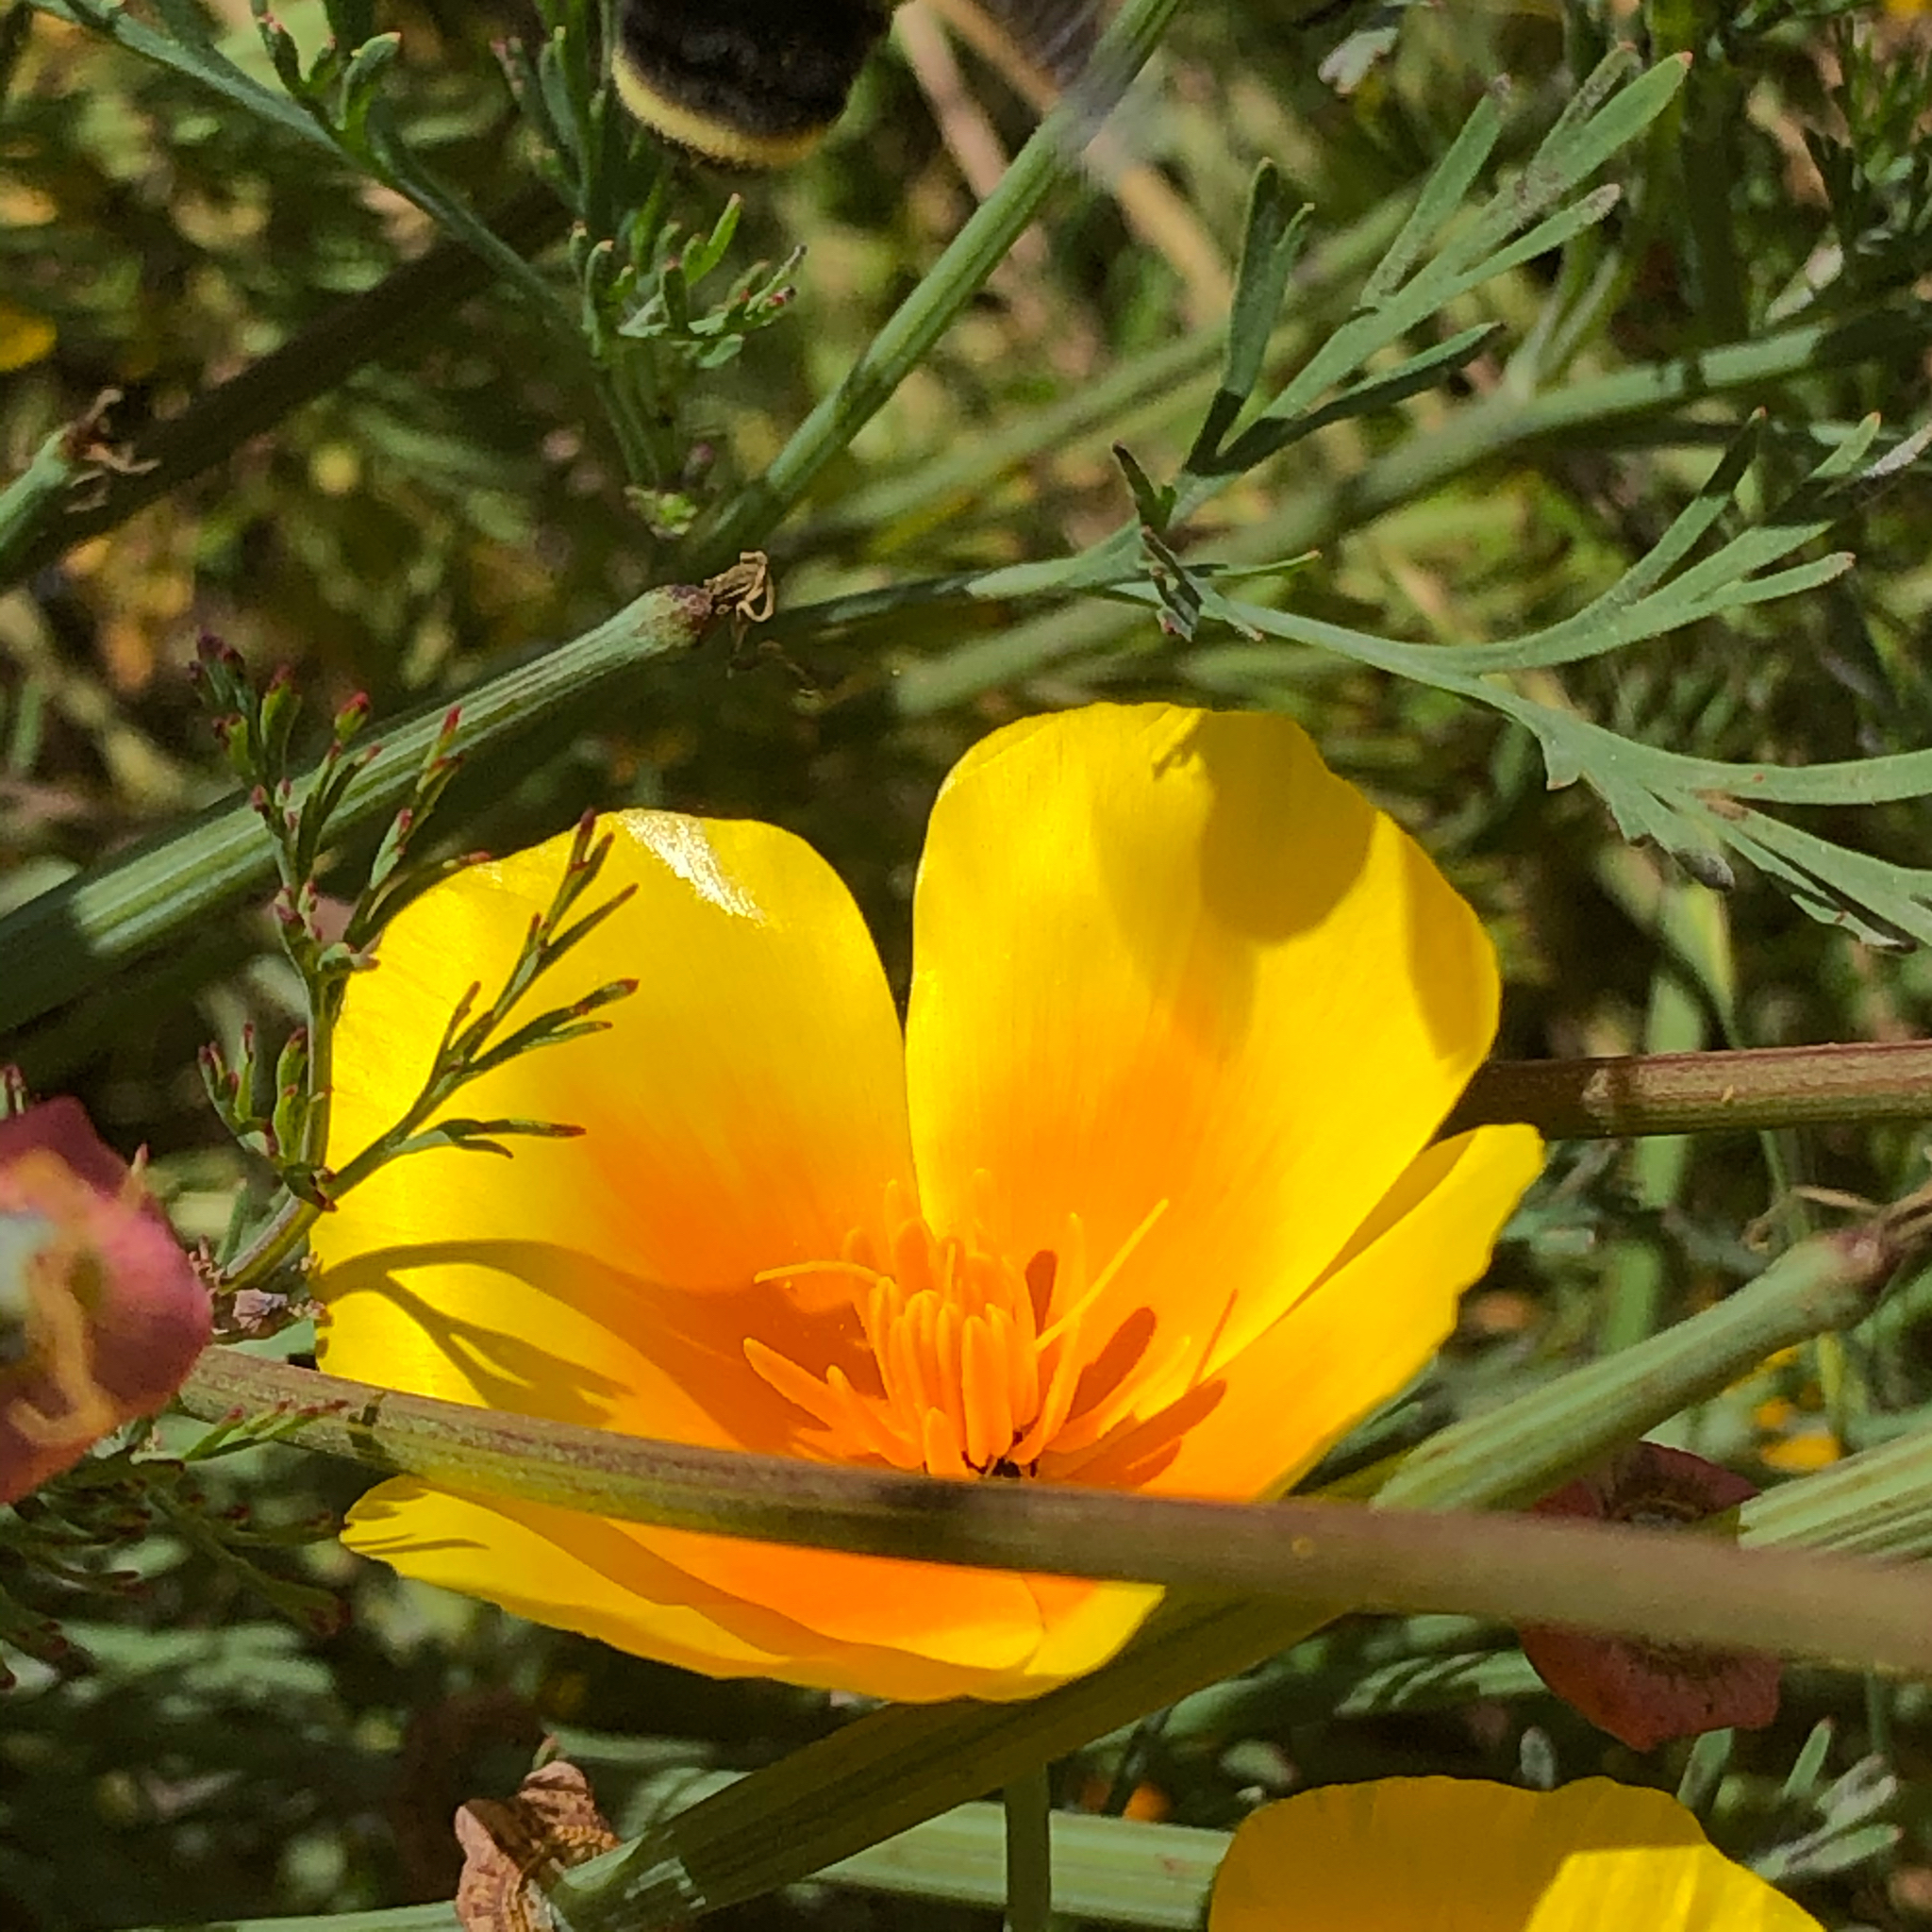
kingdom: Plantae
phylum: Tracheophyta
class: Magnoliopsida
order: Ranunculales
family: Papaveraceae
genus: Eschscholzia
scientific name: Eschscholzia californica
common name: California poppy
